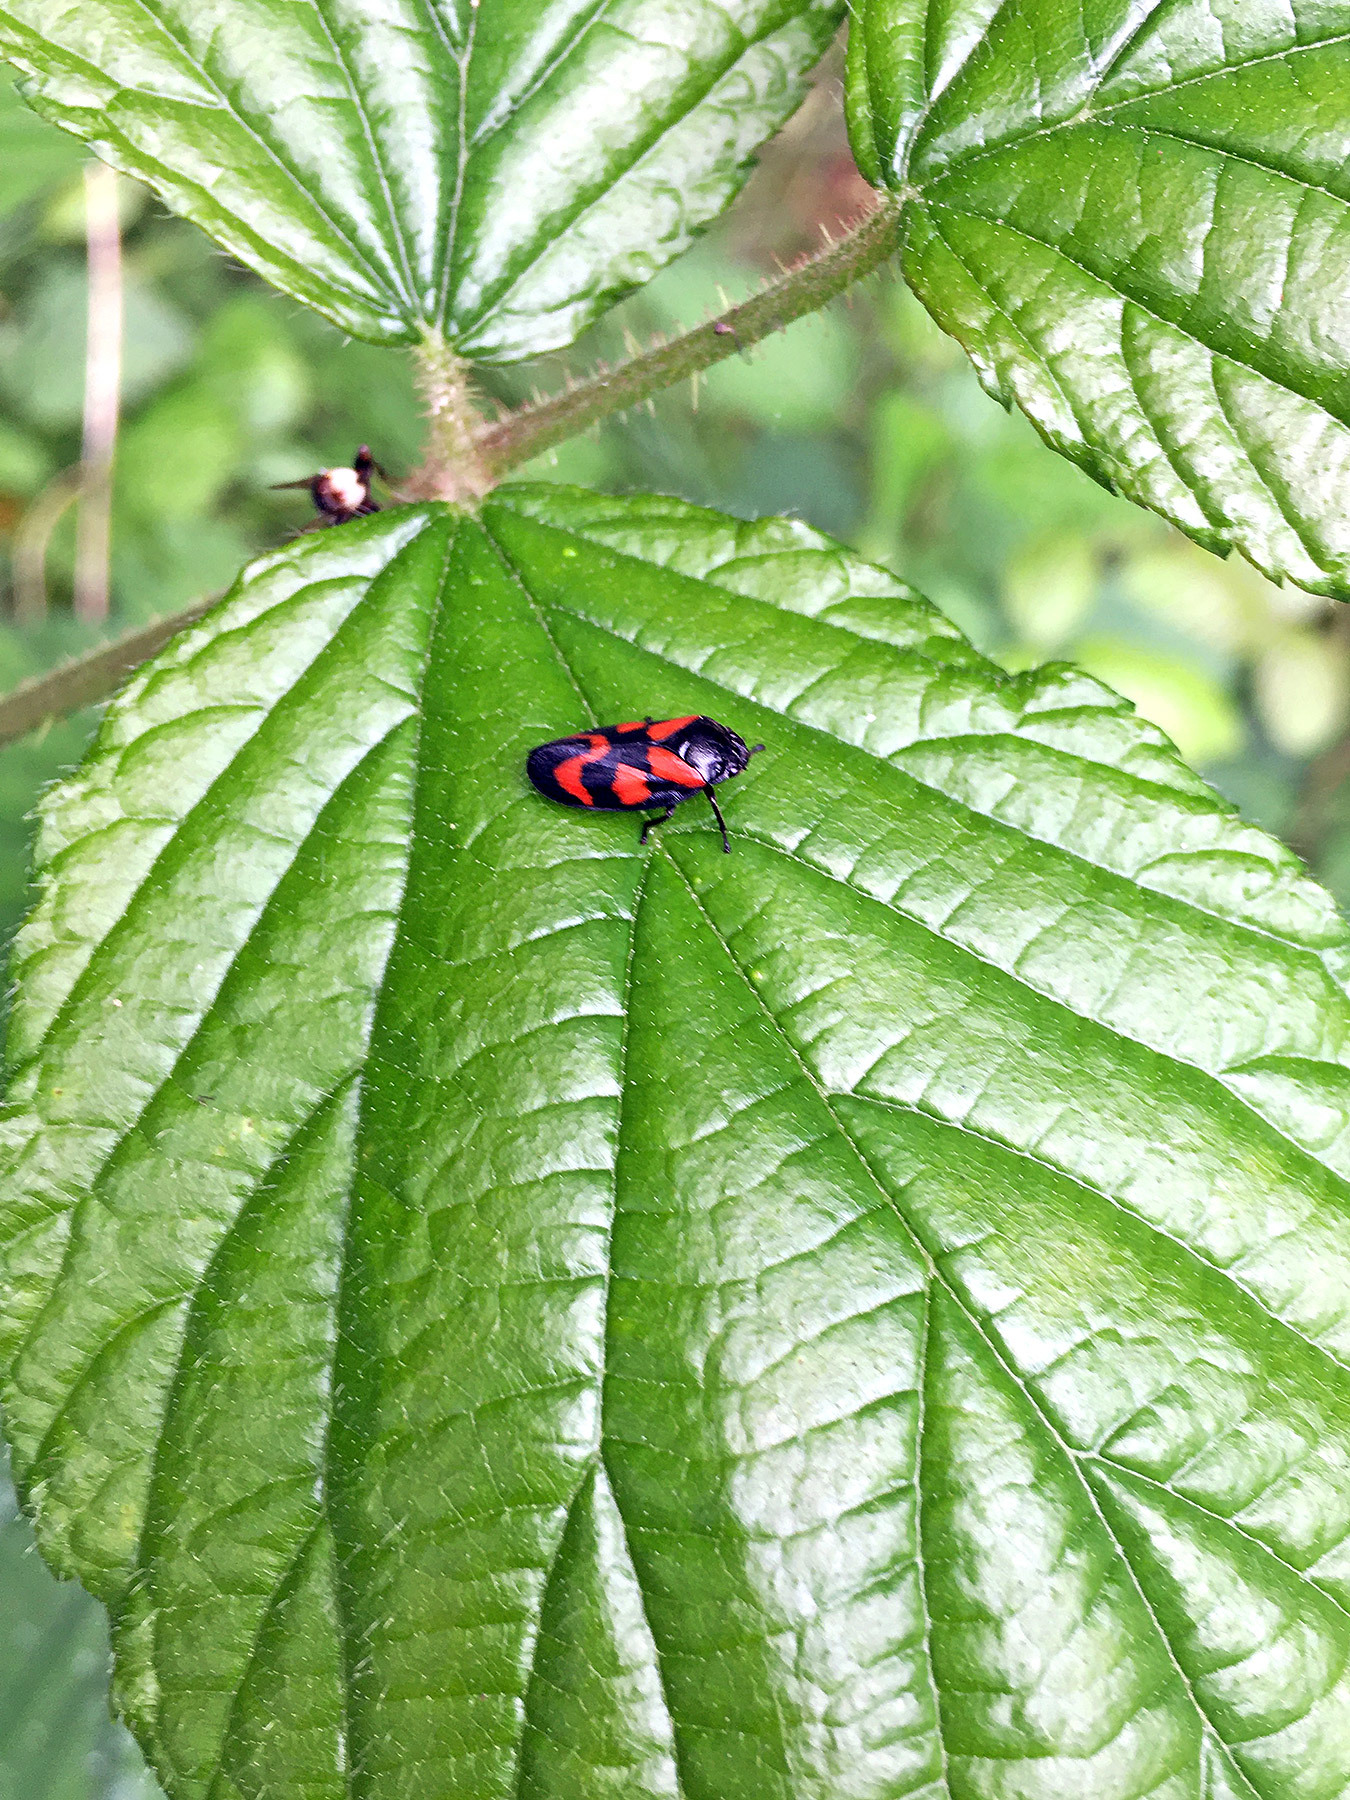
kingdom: Animalia
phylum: Arthropoda
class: Insecta
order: Hemiptera
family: Cercopidae
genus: Cercopis
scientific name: Cercopis vulnerata
